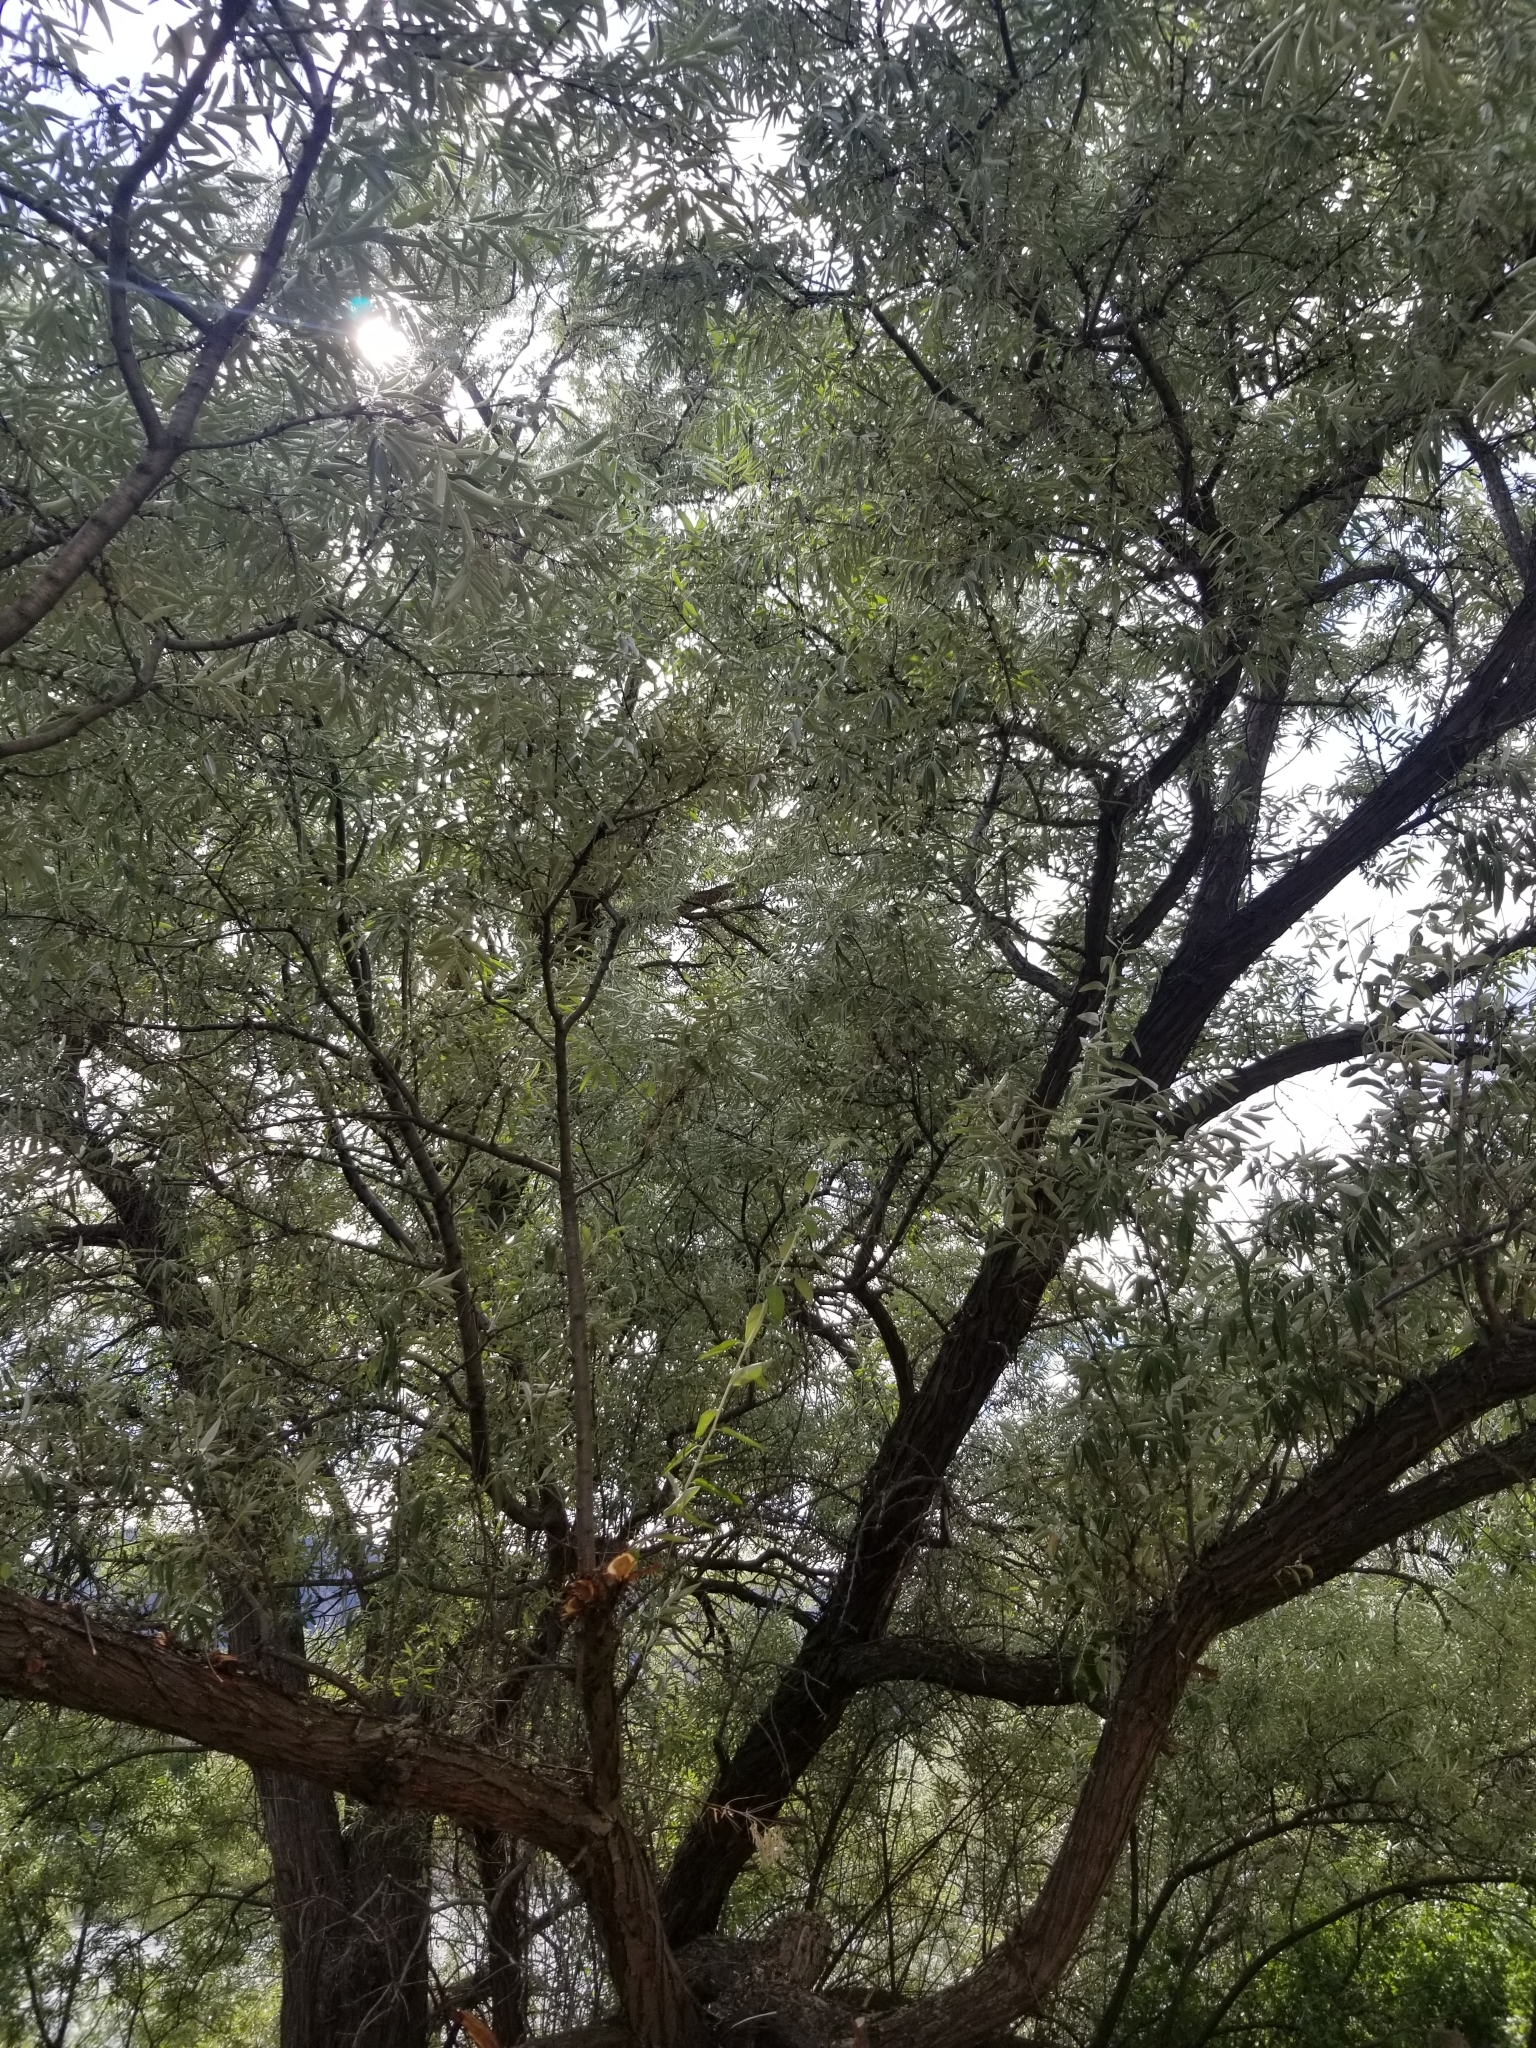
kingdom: Plantae
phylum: Tracheophyta
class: Magnoliopsida
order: Rosales
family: Elaeagnaceae
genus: Elaeagnus
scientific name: Elaeagnus angustifolia
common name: Russian olive
